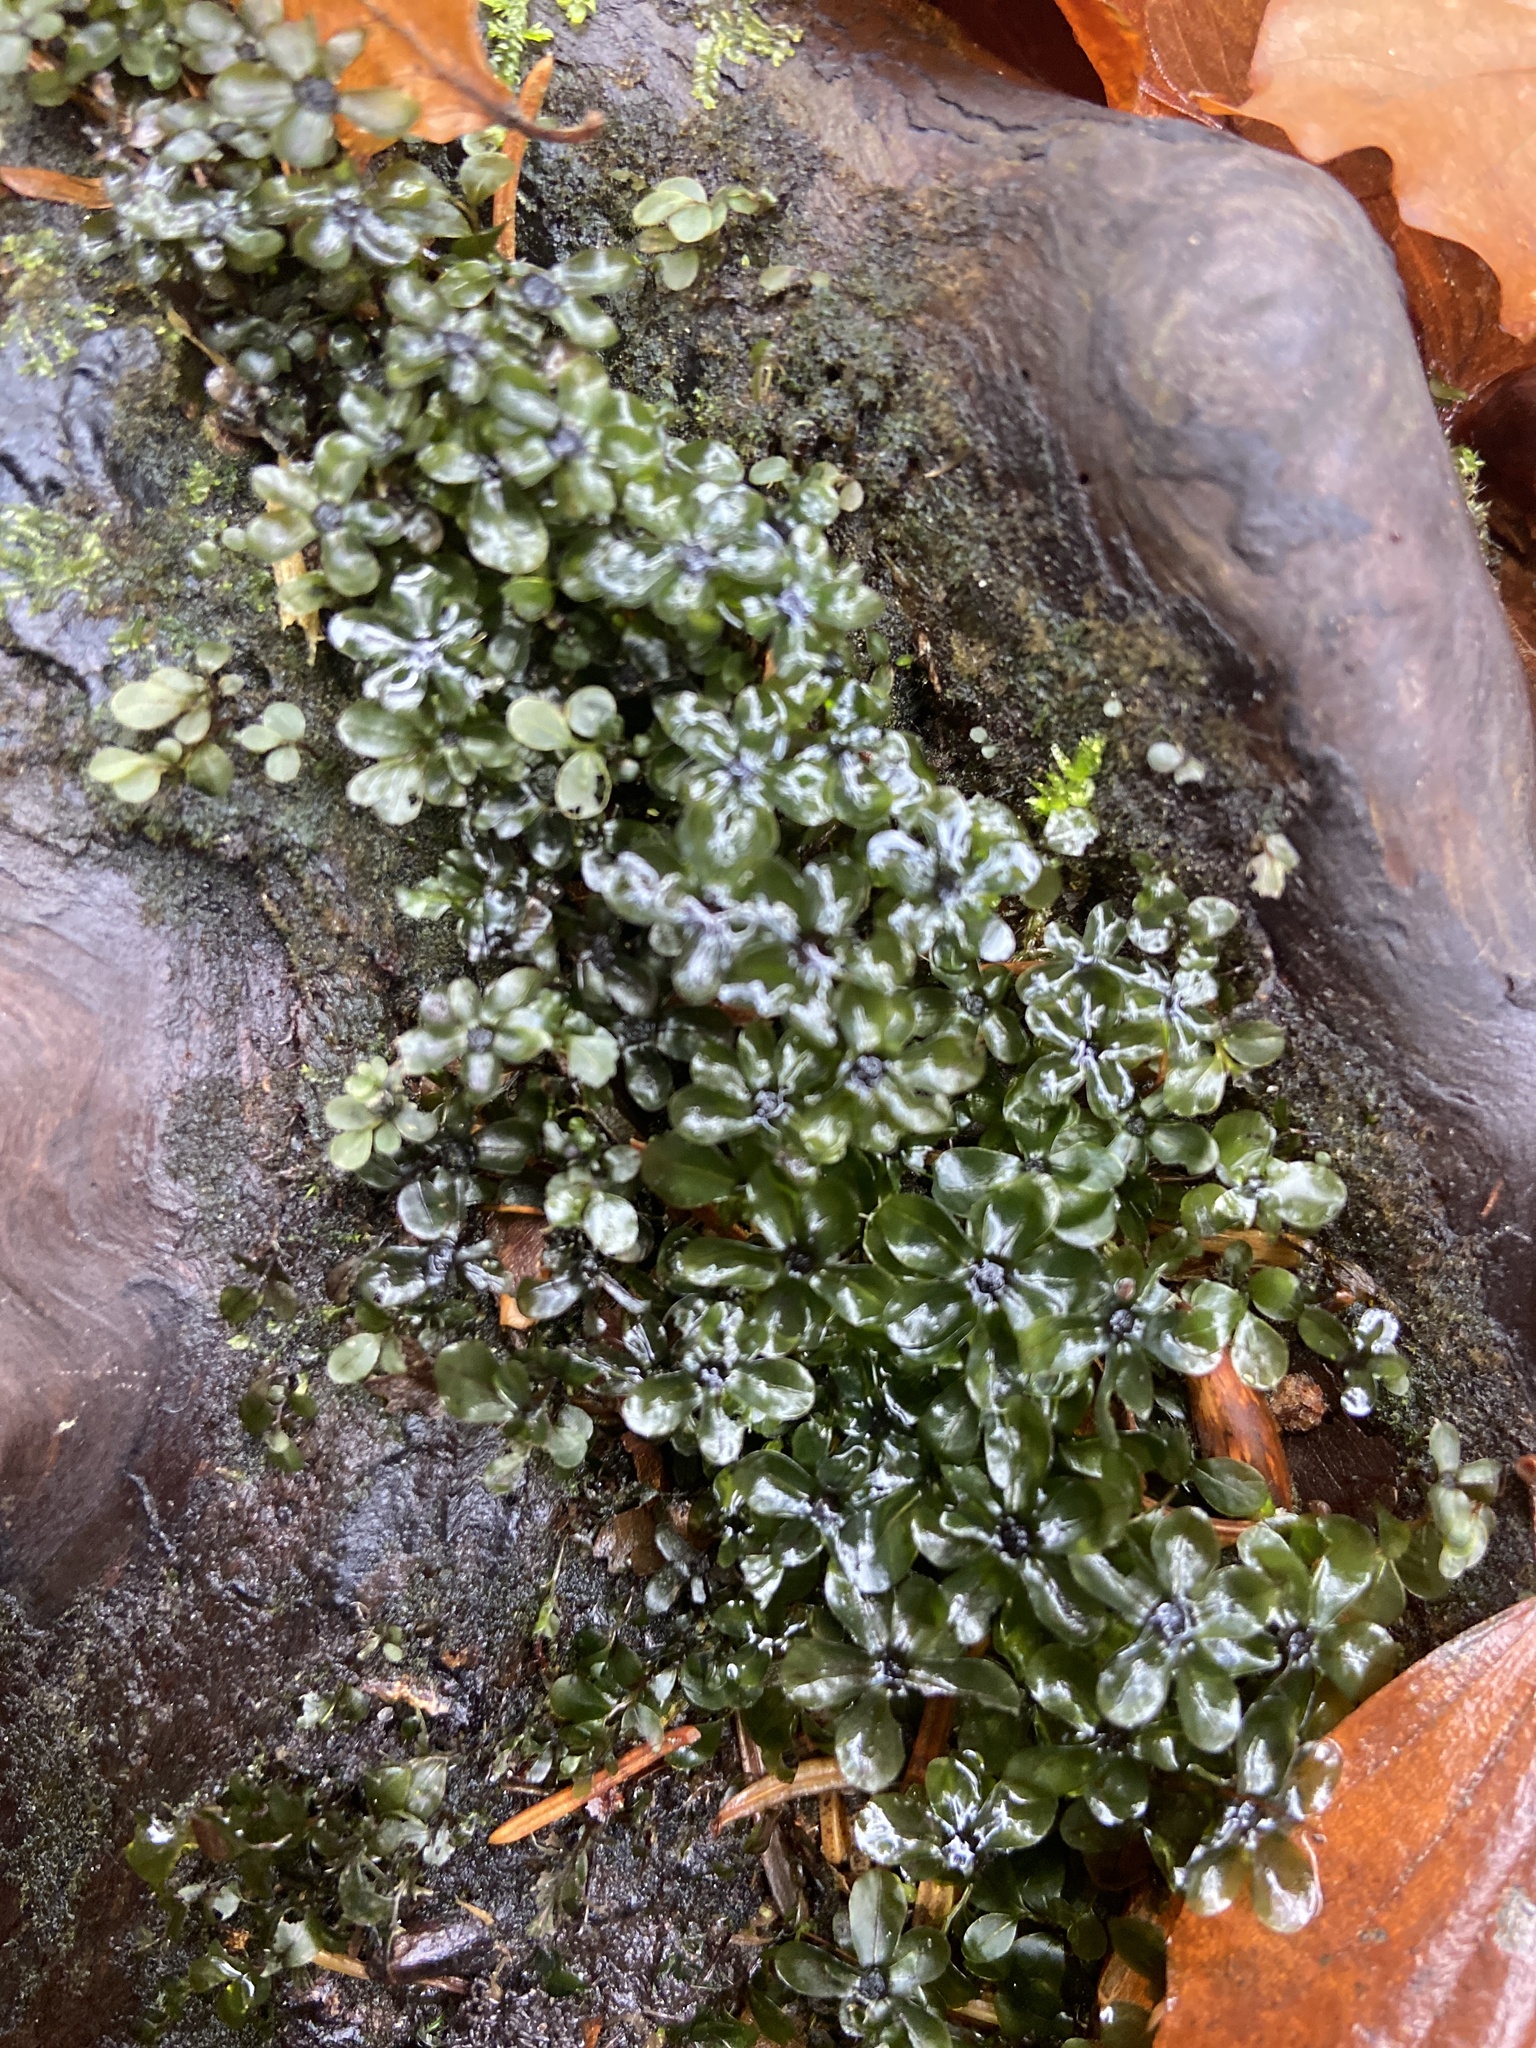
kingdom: Plantae
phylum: Bryophyta
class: Bryopsida
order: Bryales
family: Mniaceae
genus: Rhizomnium
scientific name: Rhizomnium punctatum
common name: Dotted leafy moss
